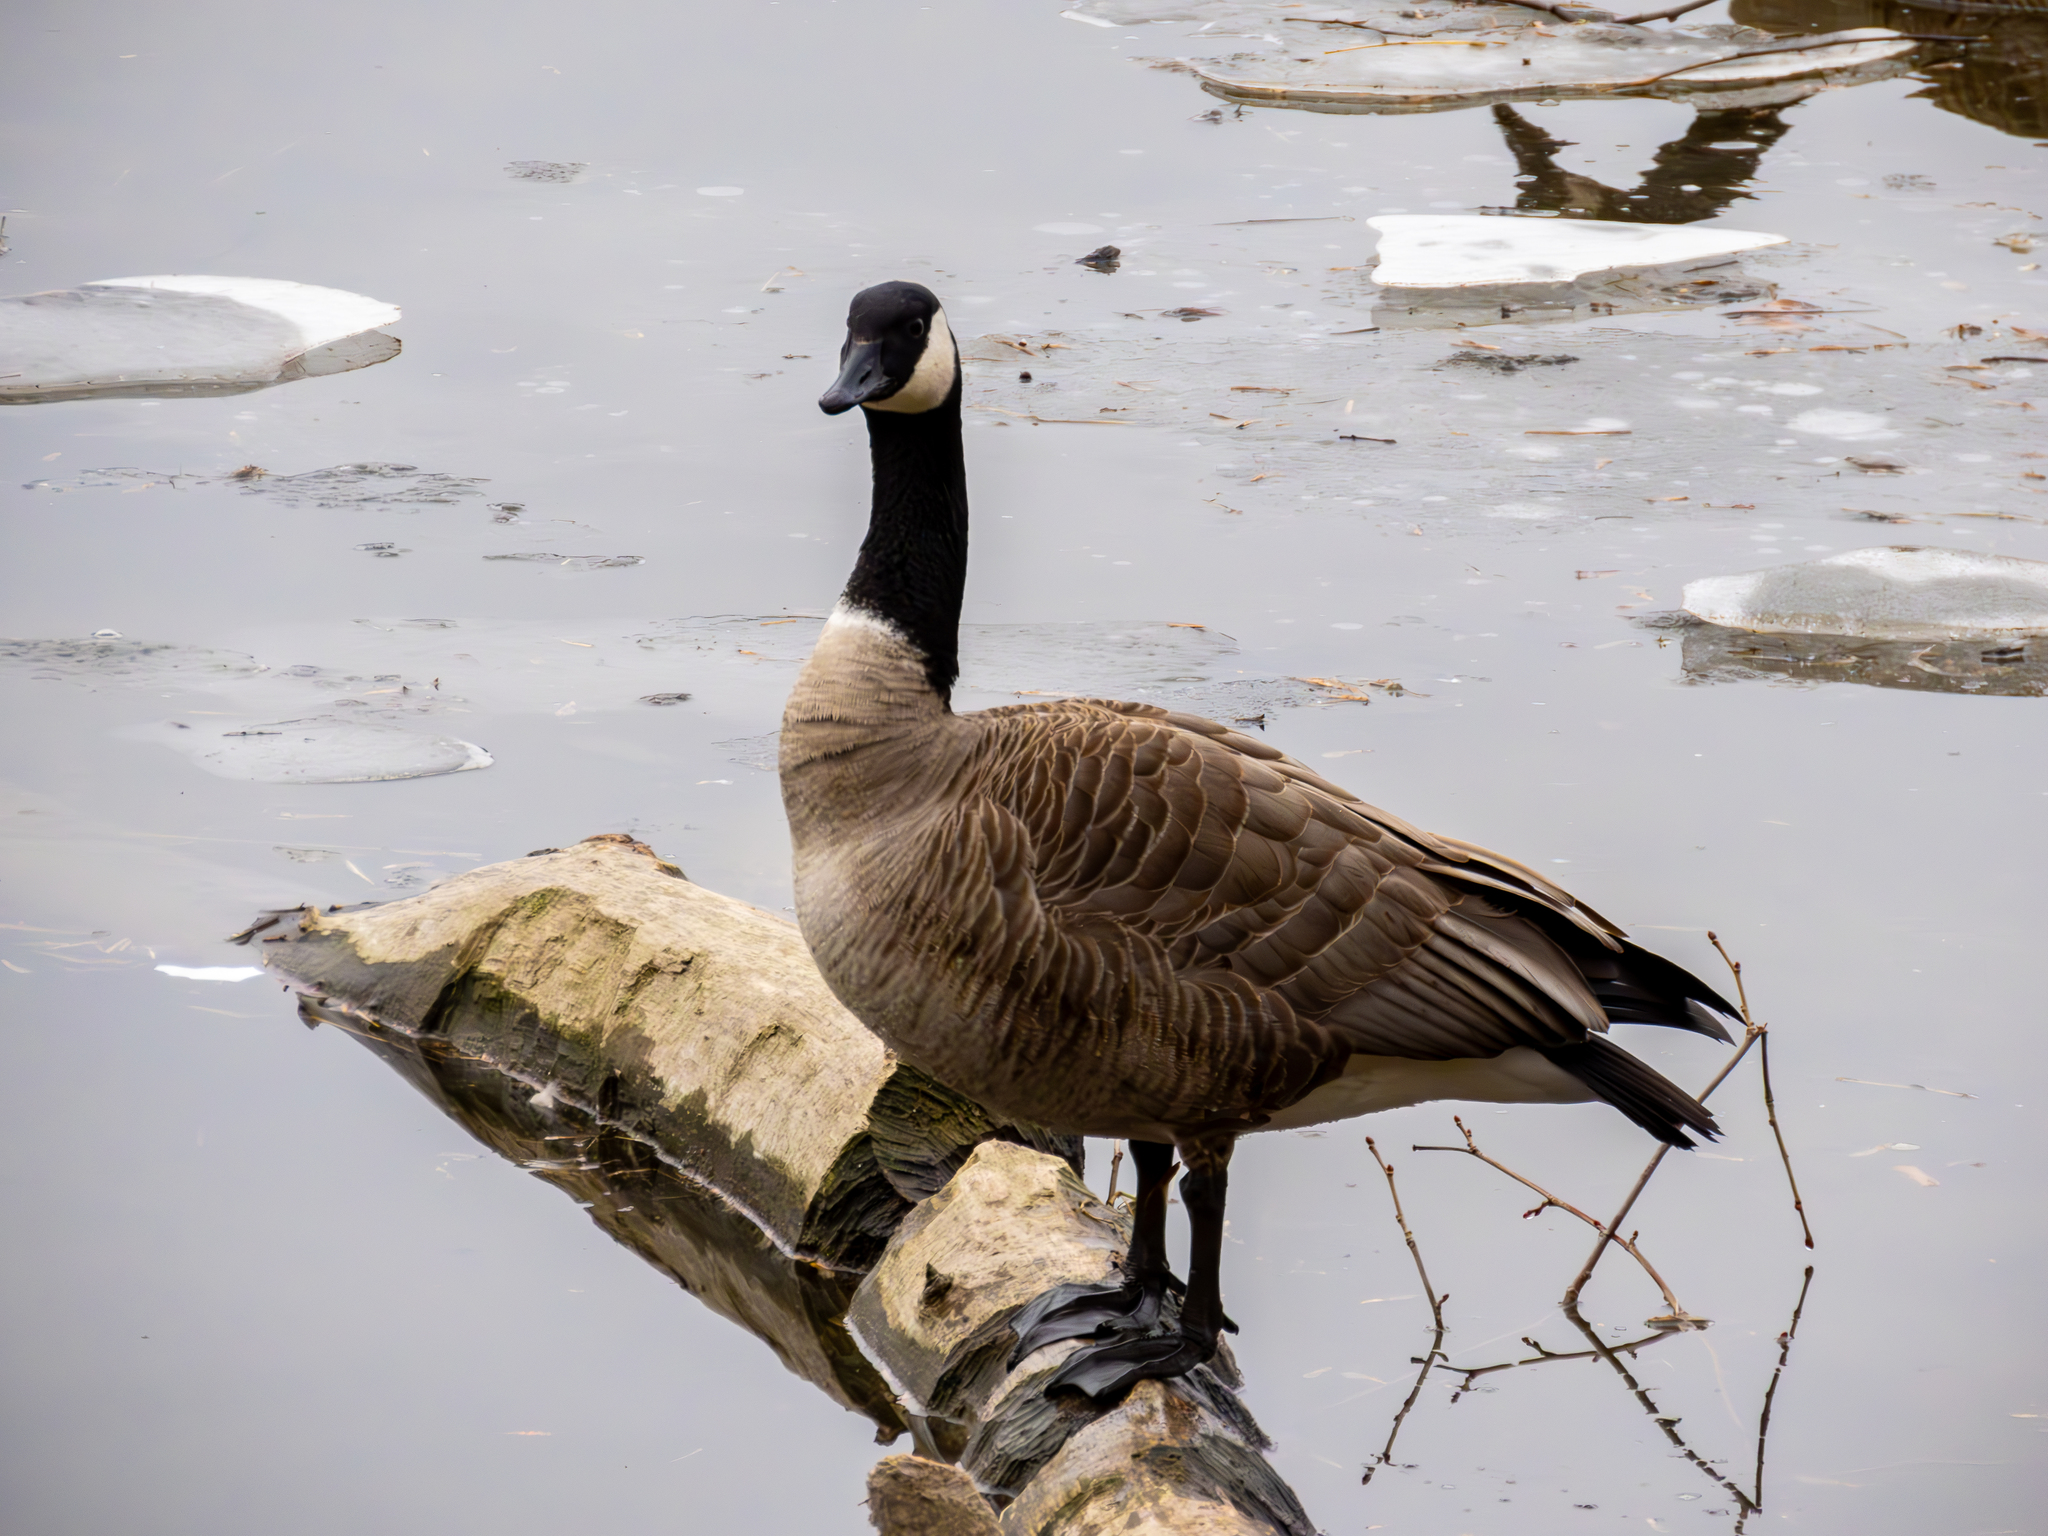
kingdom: Animalia
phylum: Chordata
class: Aves
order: Anseriformes
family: Anatidae
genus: Branta
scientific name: Branta canadensis
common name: Canada goose
